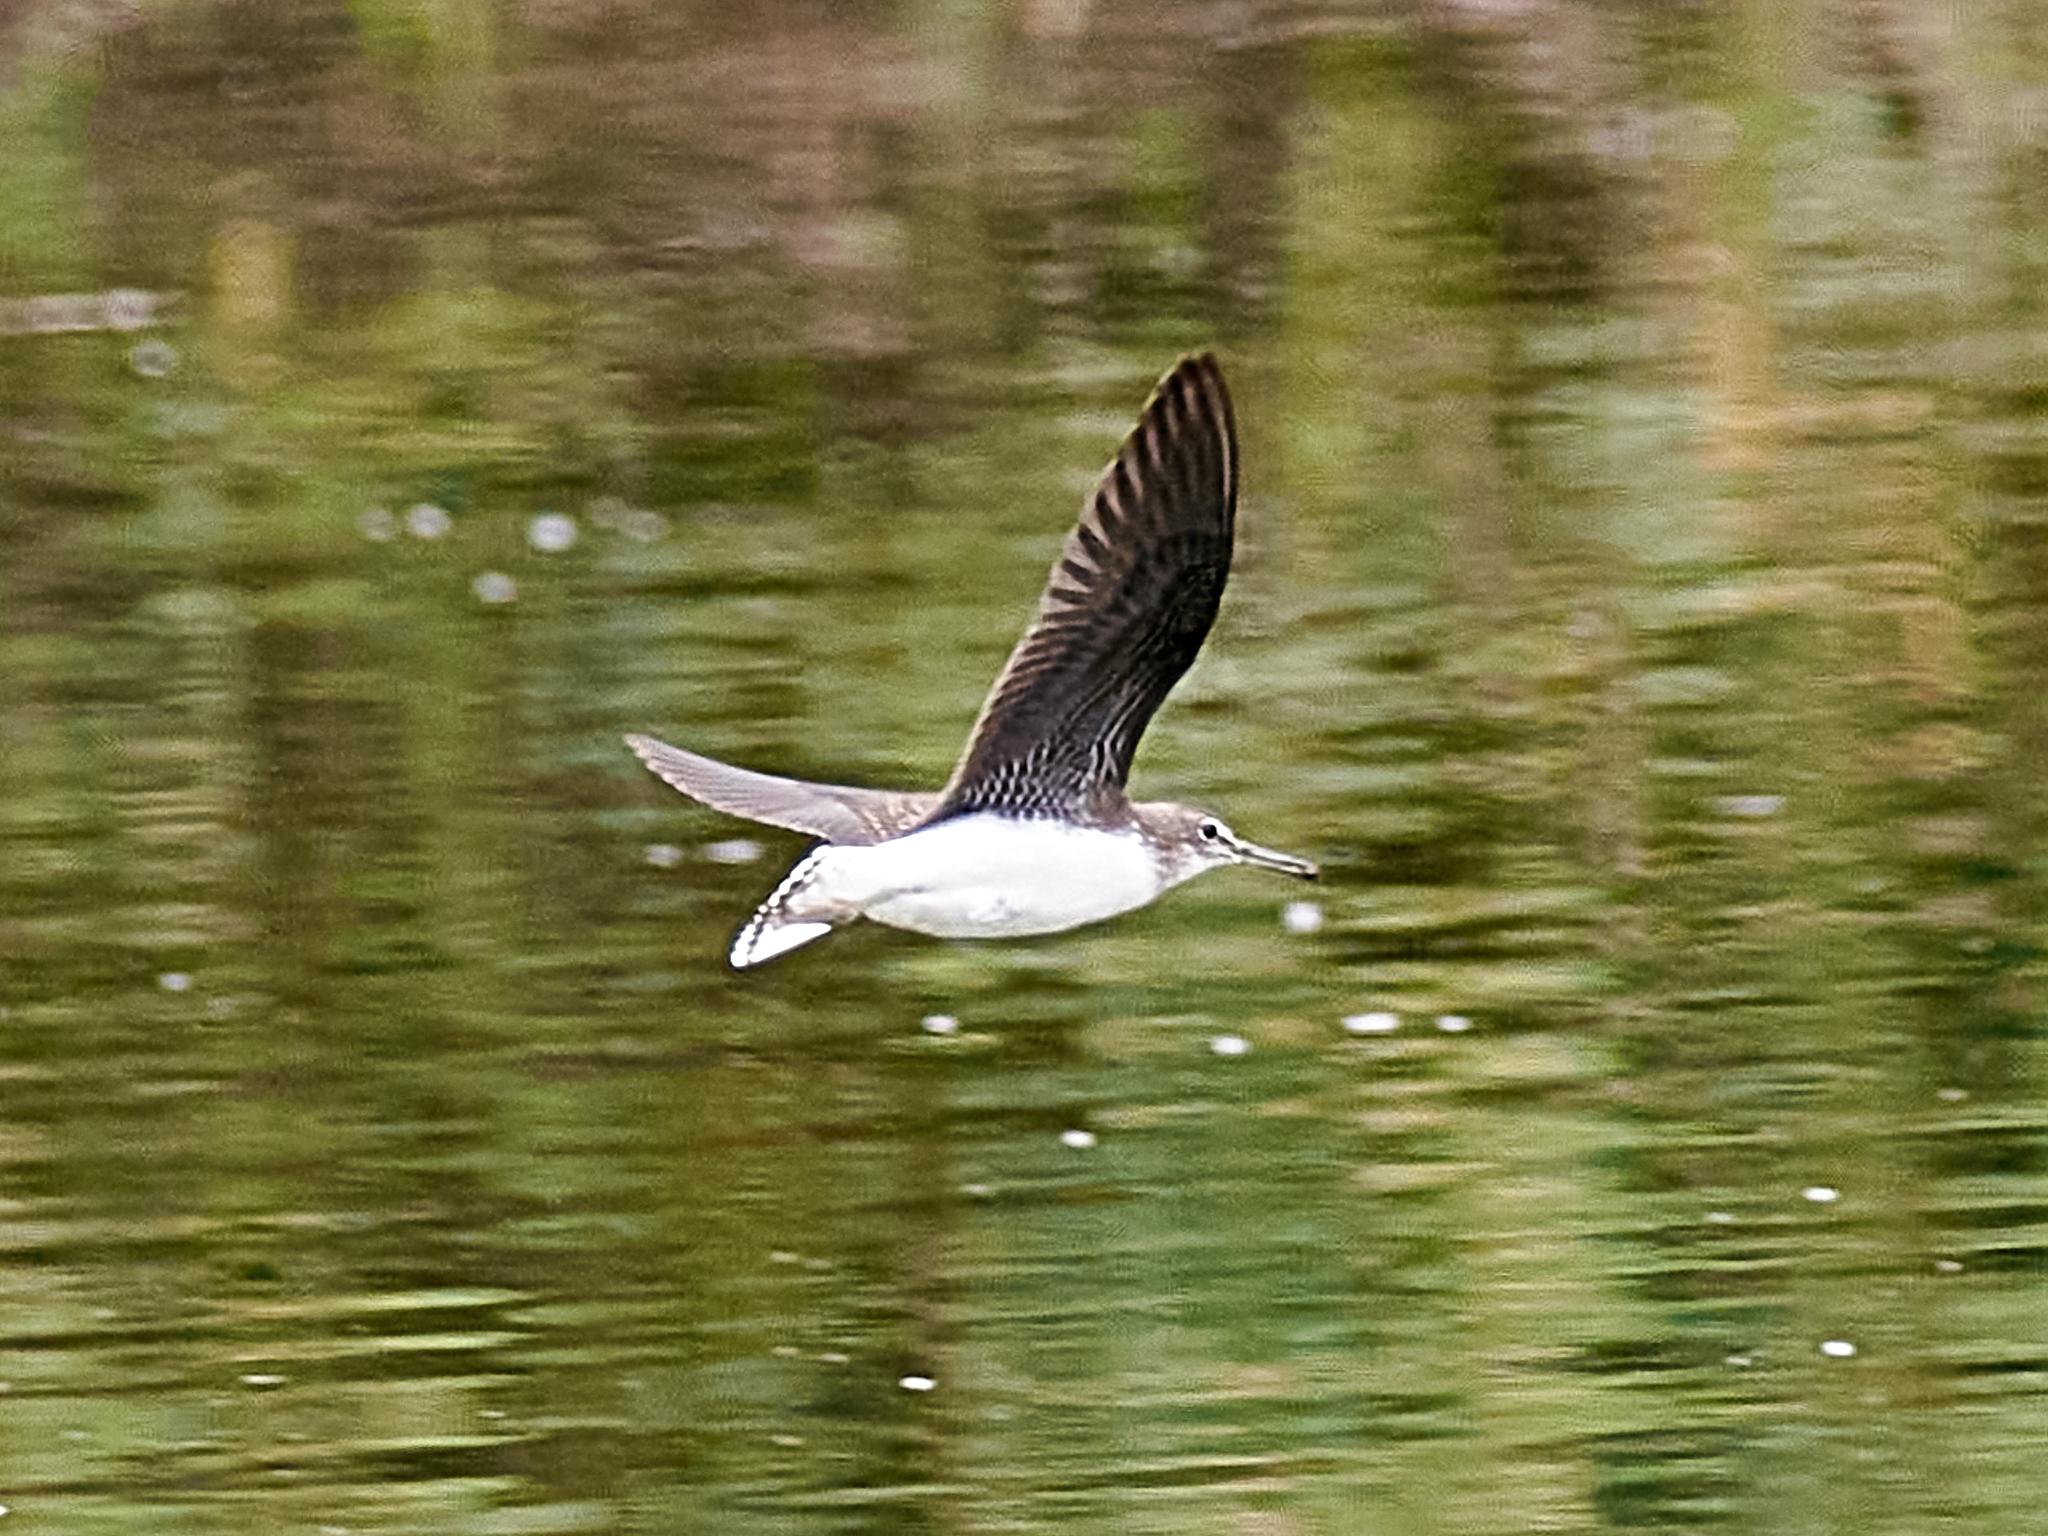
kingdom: Animalia
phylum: Chordata
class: Aves
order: Charadriiformes
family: Scolopacidae
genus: Tringa
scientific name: Tringa ochropus
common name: Green sandpiper
